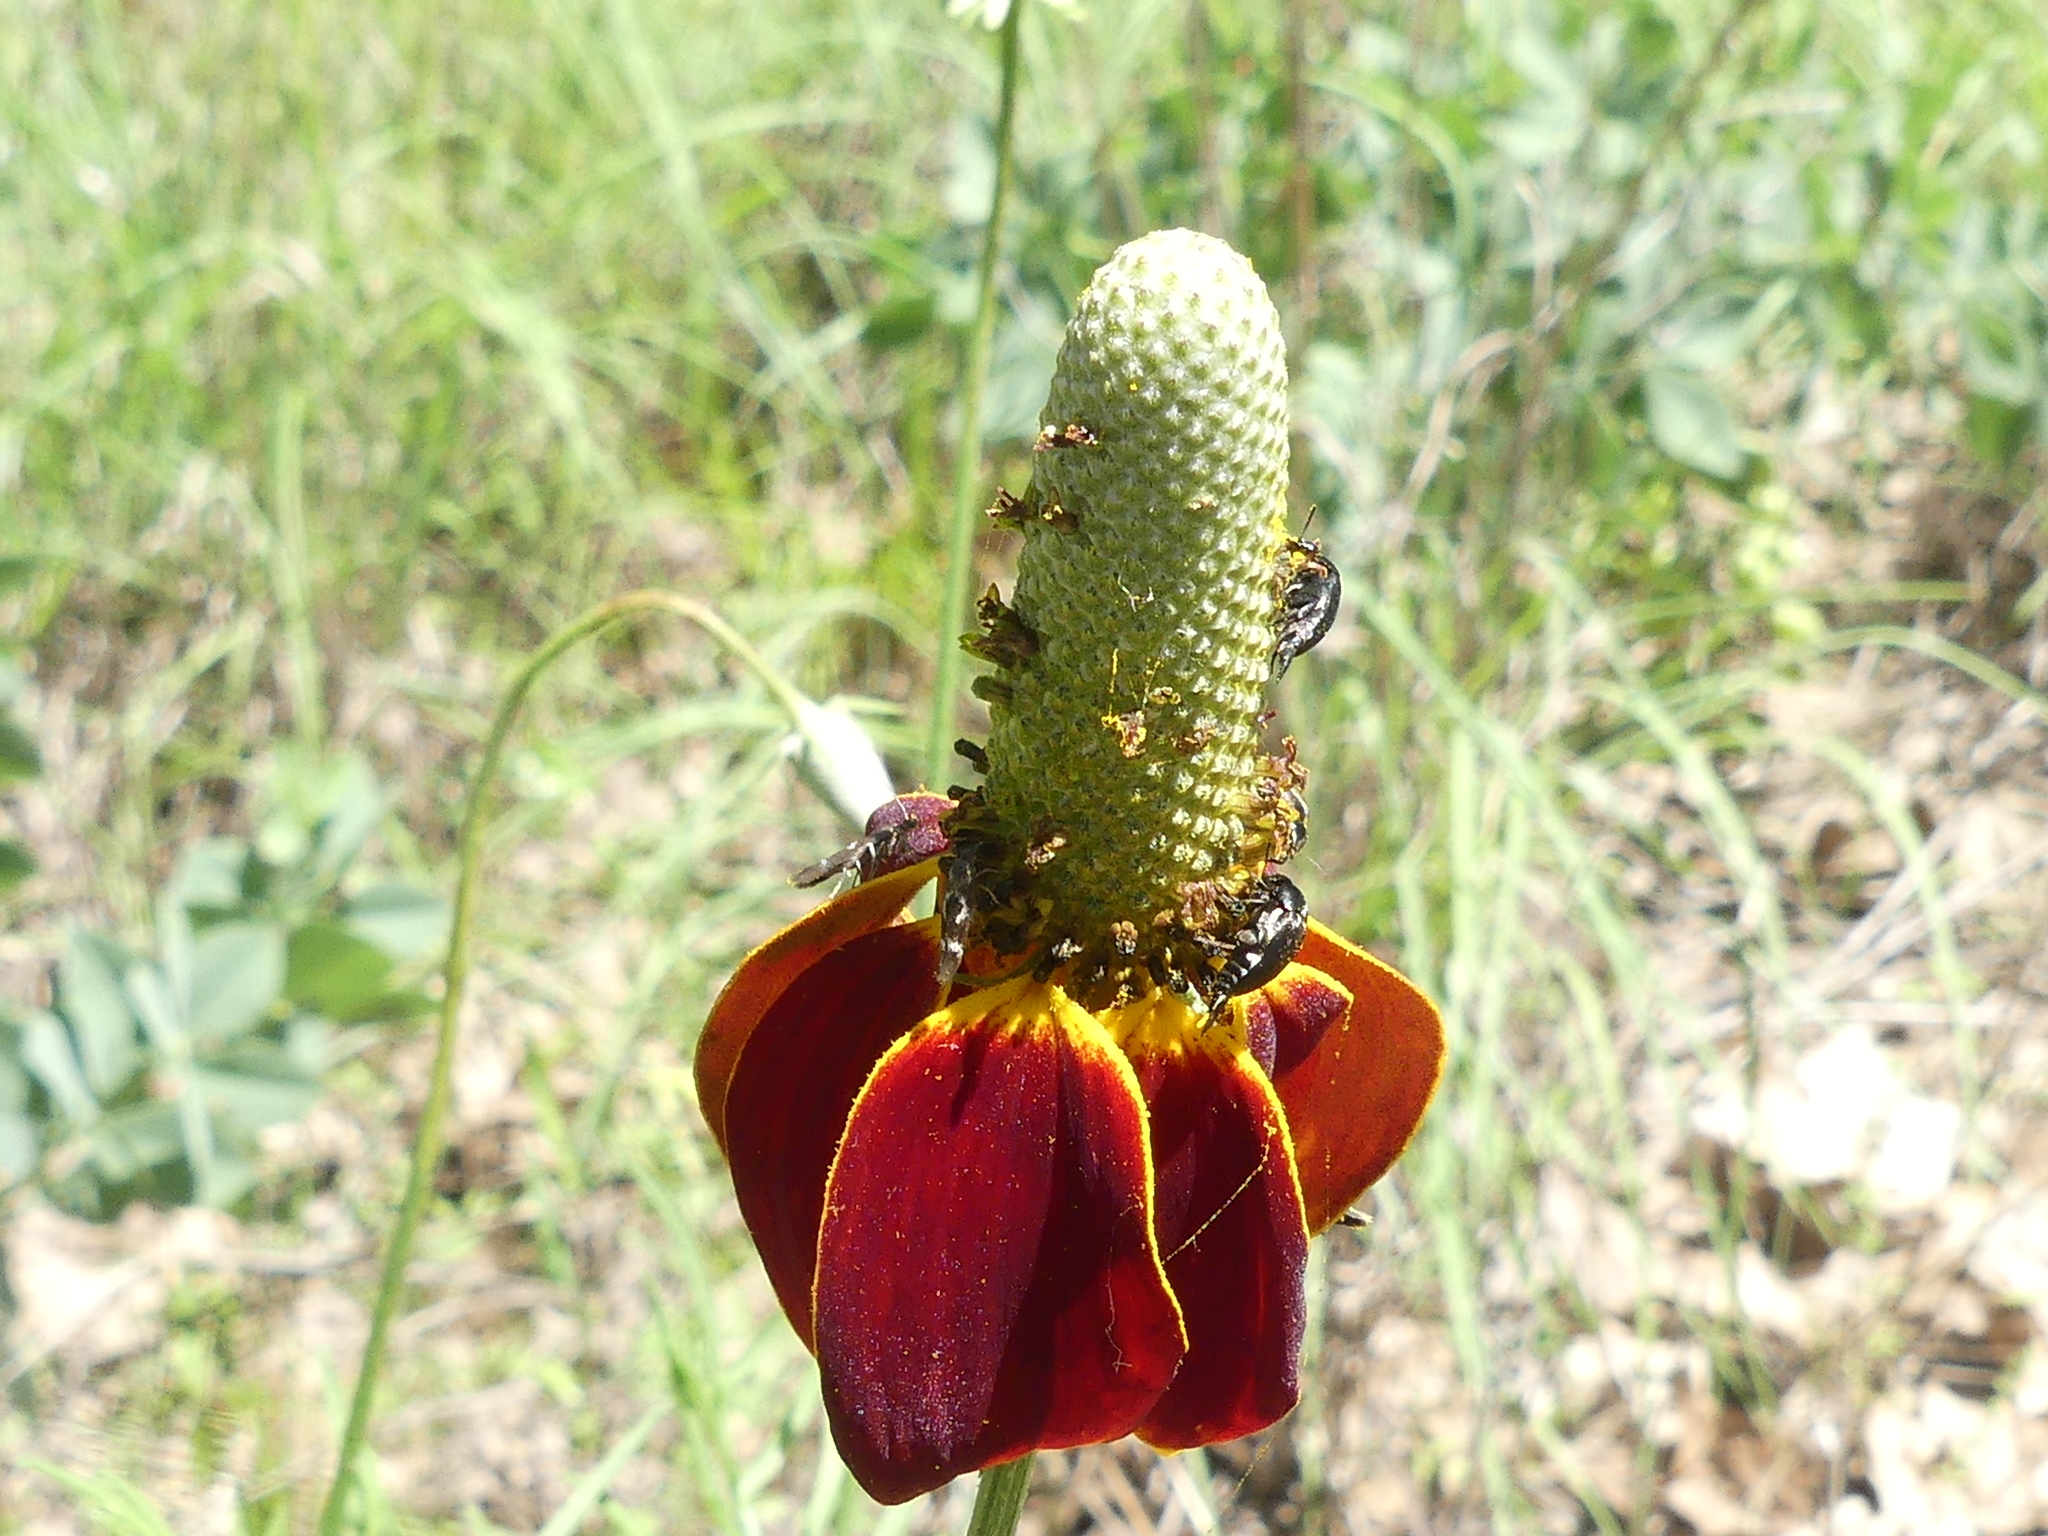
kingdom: Plantae
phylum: Tracheophyta
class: Magnoliopsida
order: Asterales
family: Asteraceae
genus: Ratibida
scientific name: Ratibida columnifera
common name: Prairie coneflower
